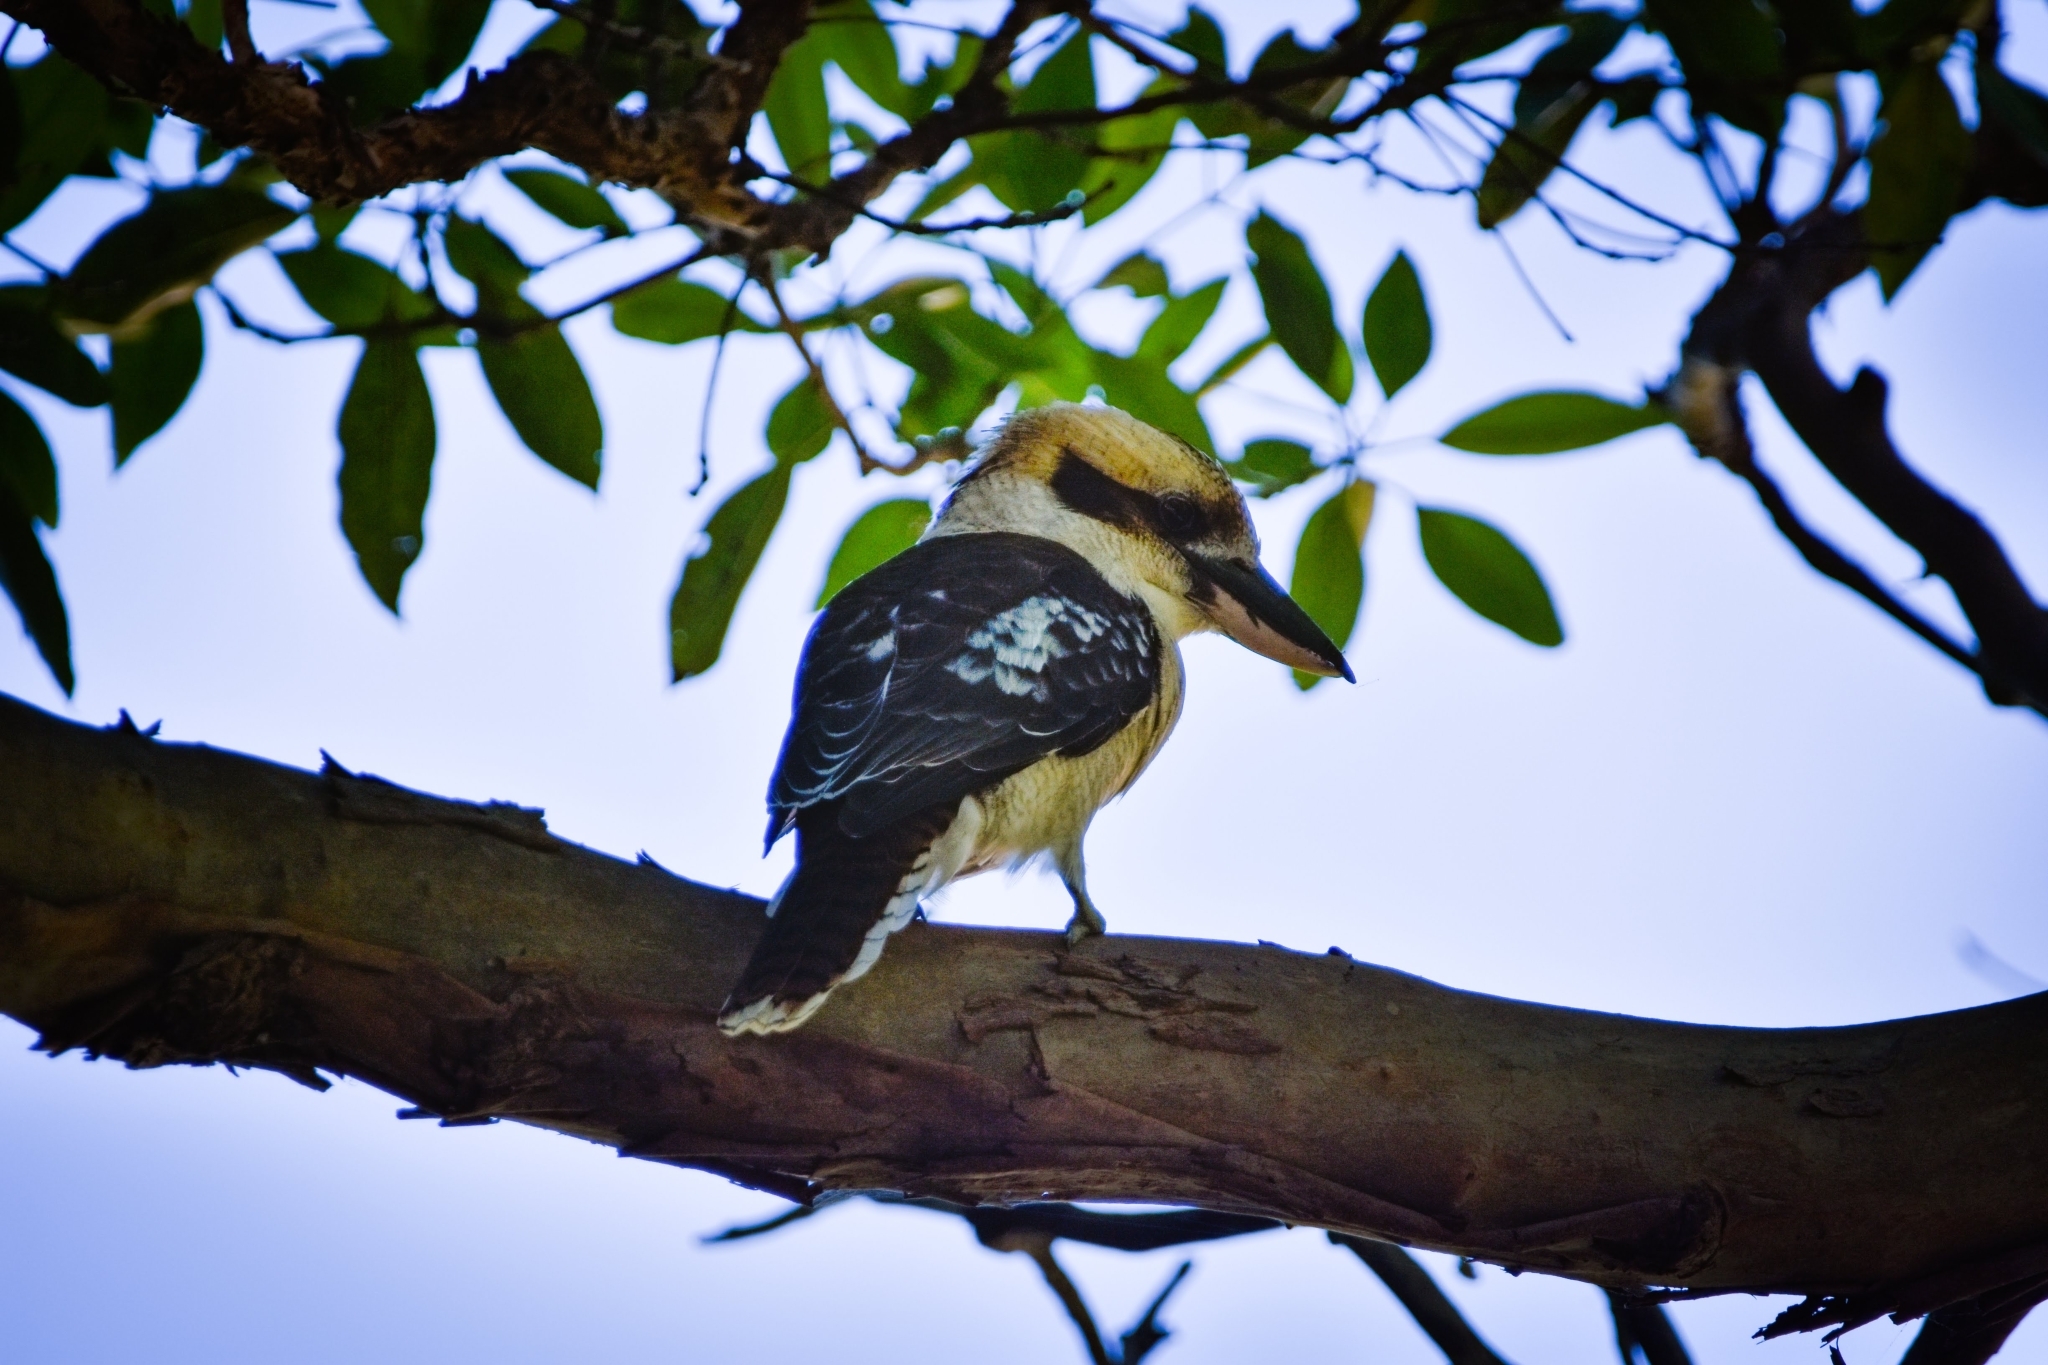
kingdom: Animalia
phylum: Chordata
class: Aves
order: Coraciiformes
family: Alcedinidae
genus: Dacelo
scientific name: Dacelo novaeguineae
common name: Laughing kookaburra
